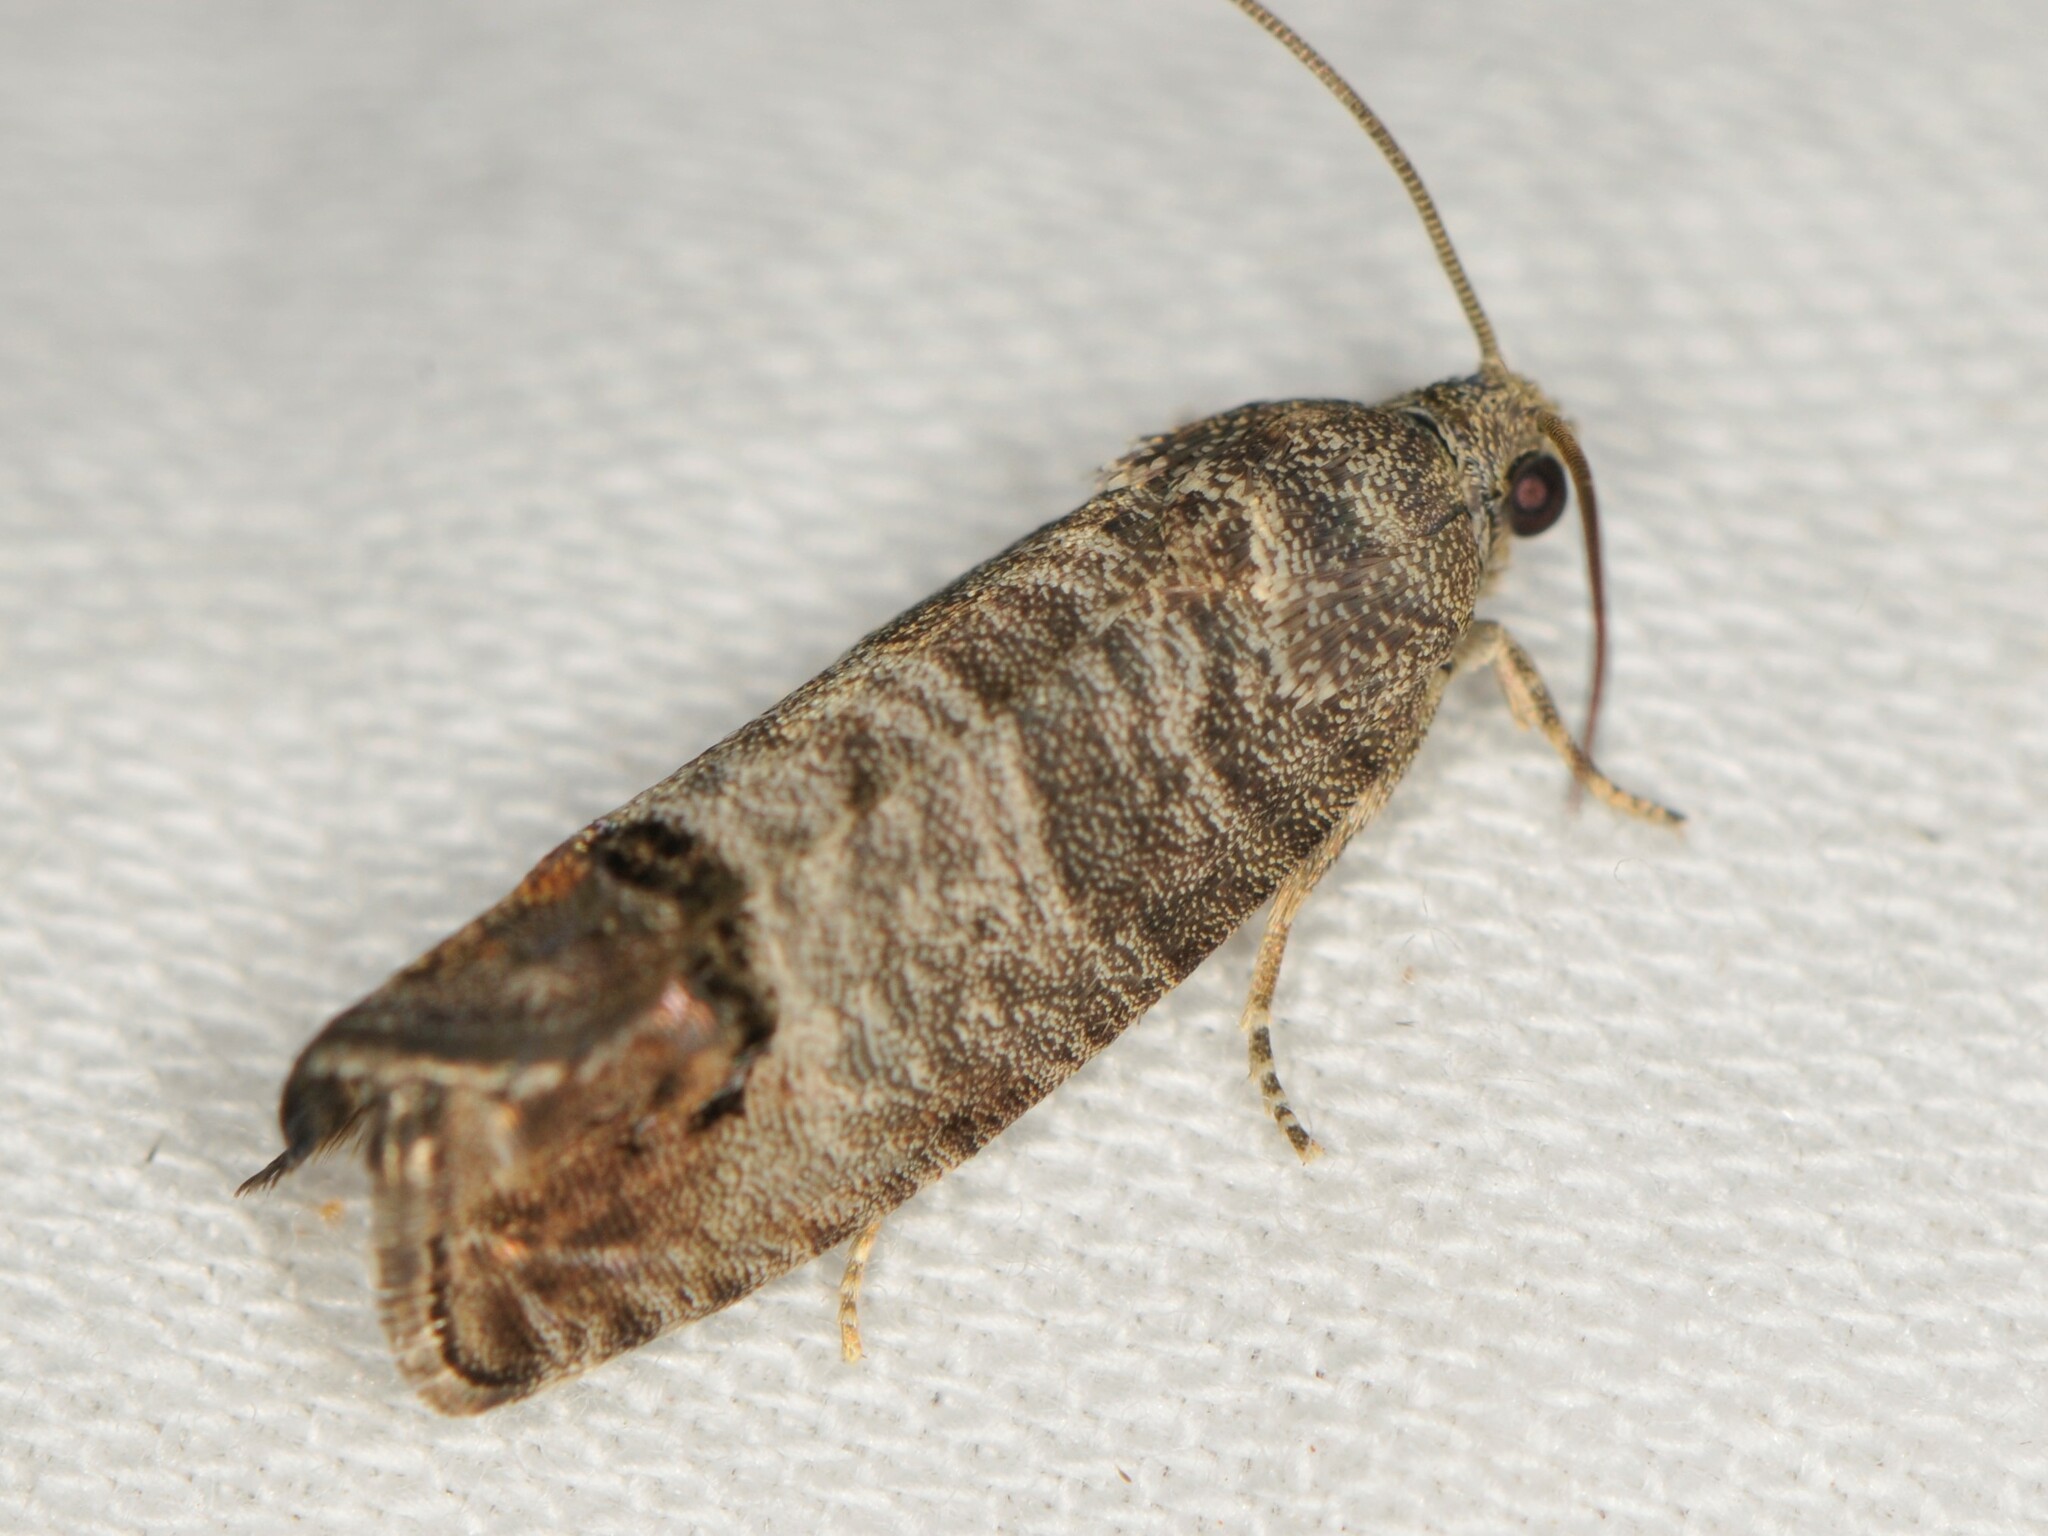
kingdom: Animalia
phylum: Arthropoda
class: Insecta
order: Lepidoptera
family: Tortricidae
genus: Cydia
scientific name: Cydia pomonella
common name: Codling moth
